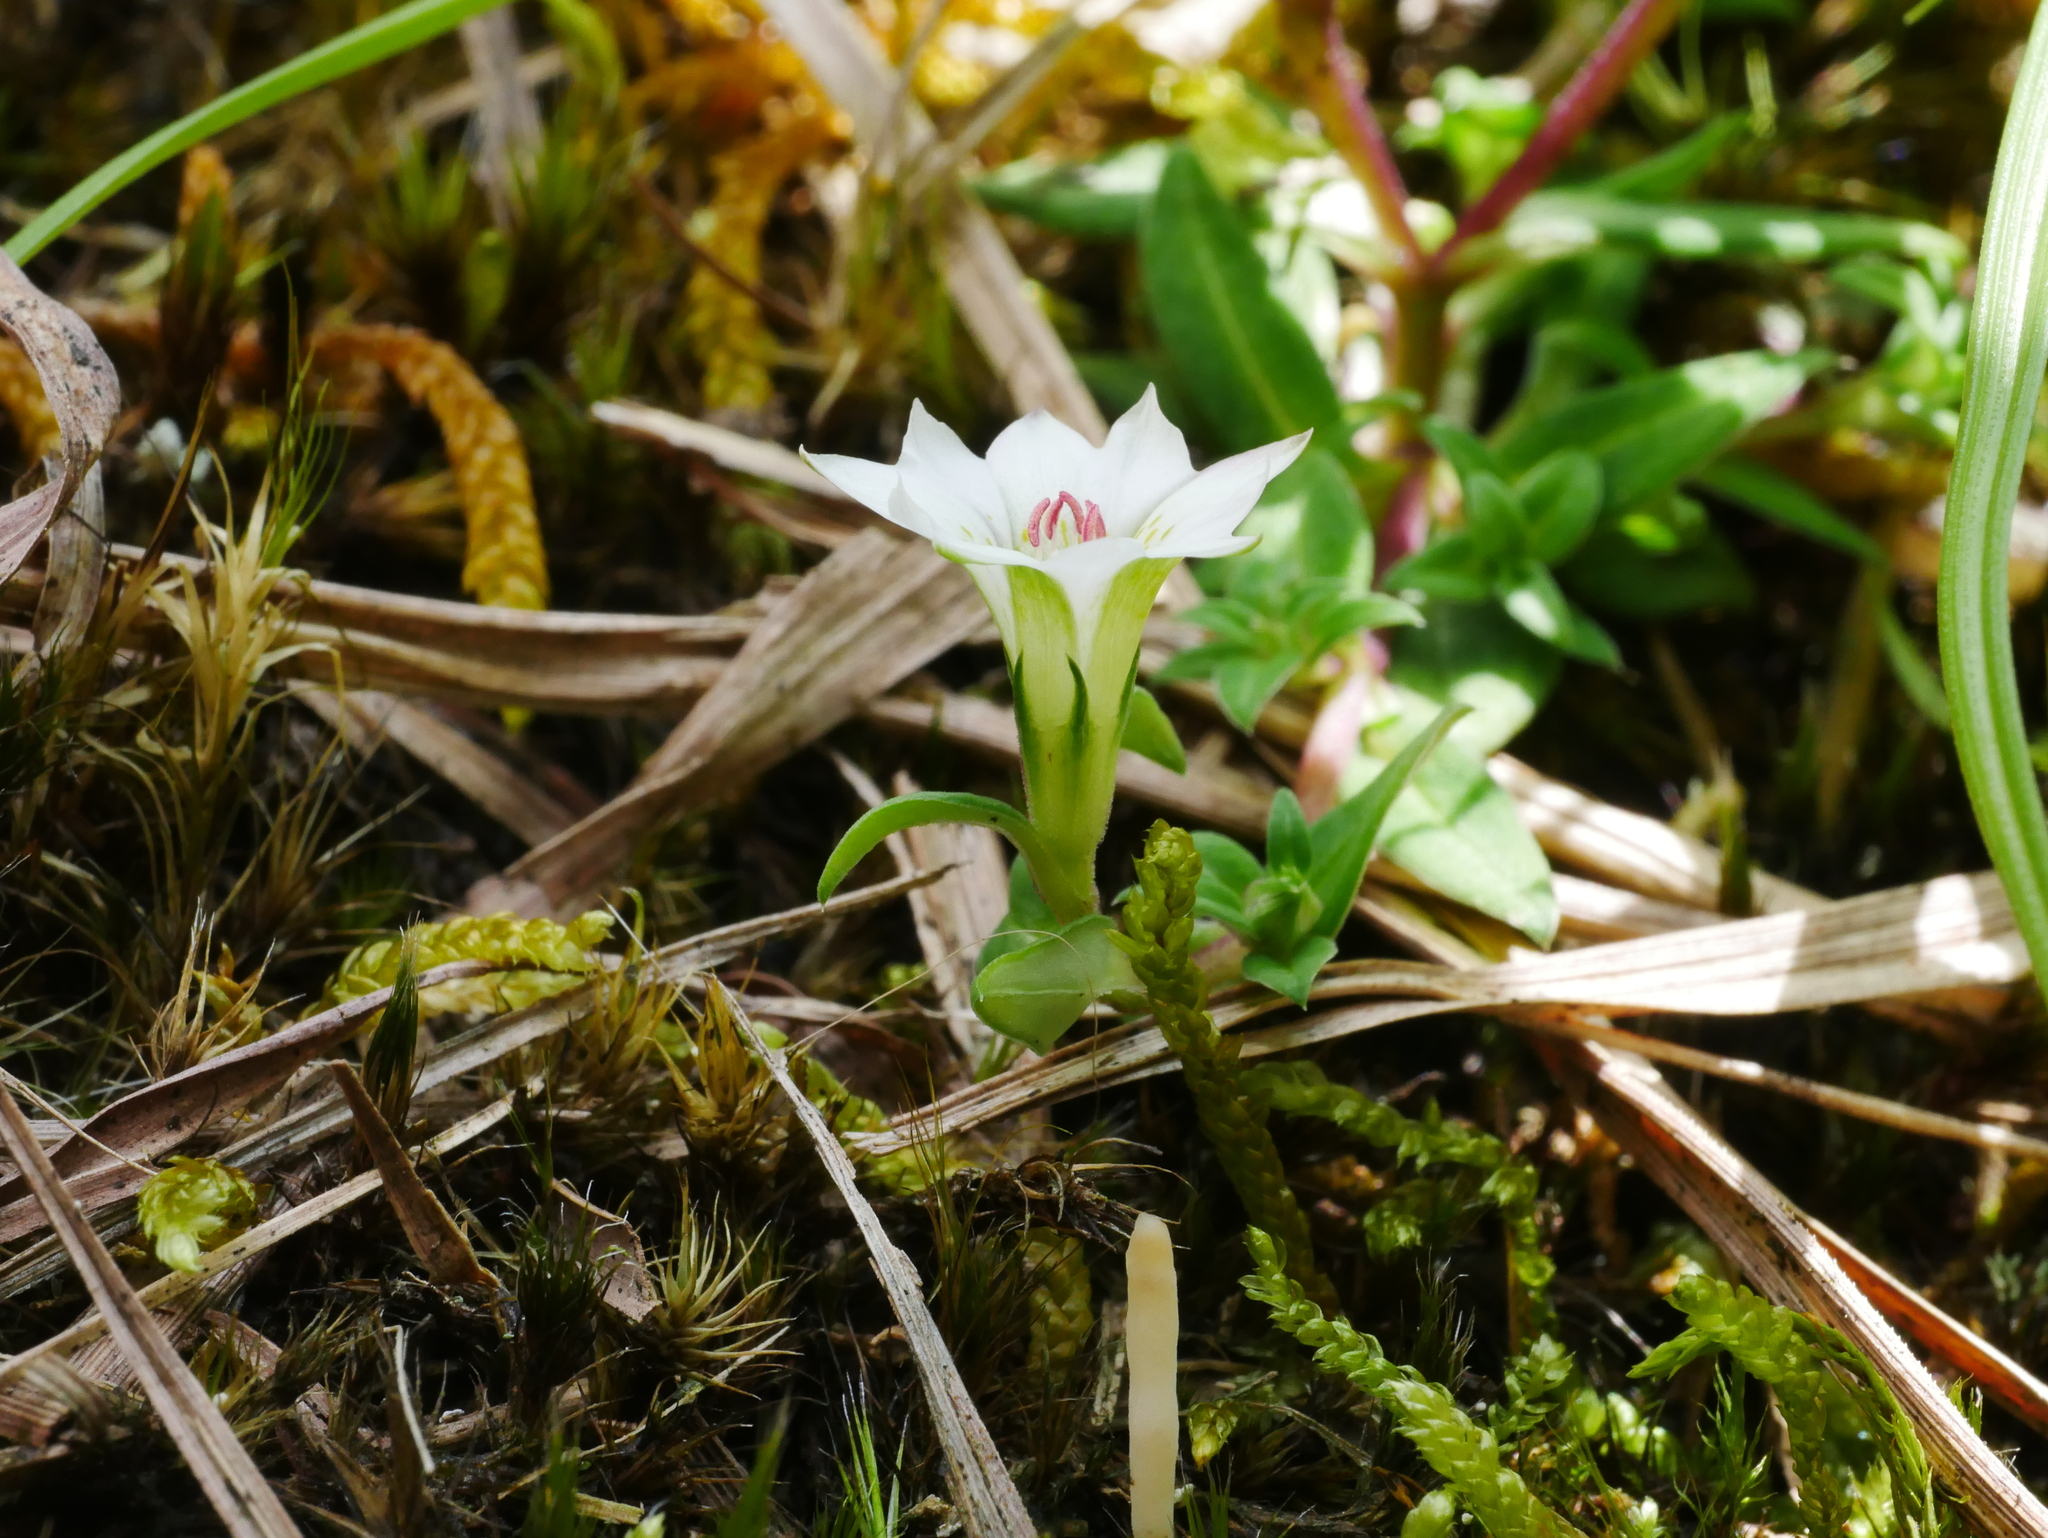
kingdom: Plantae
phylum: Tracheophyta
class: Magnoliopsida
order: Gentianales
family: Gentianaceae
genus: Gentiana
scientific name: Gentiana flavomaculata
